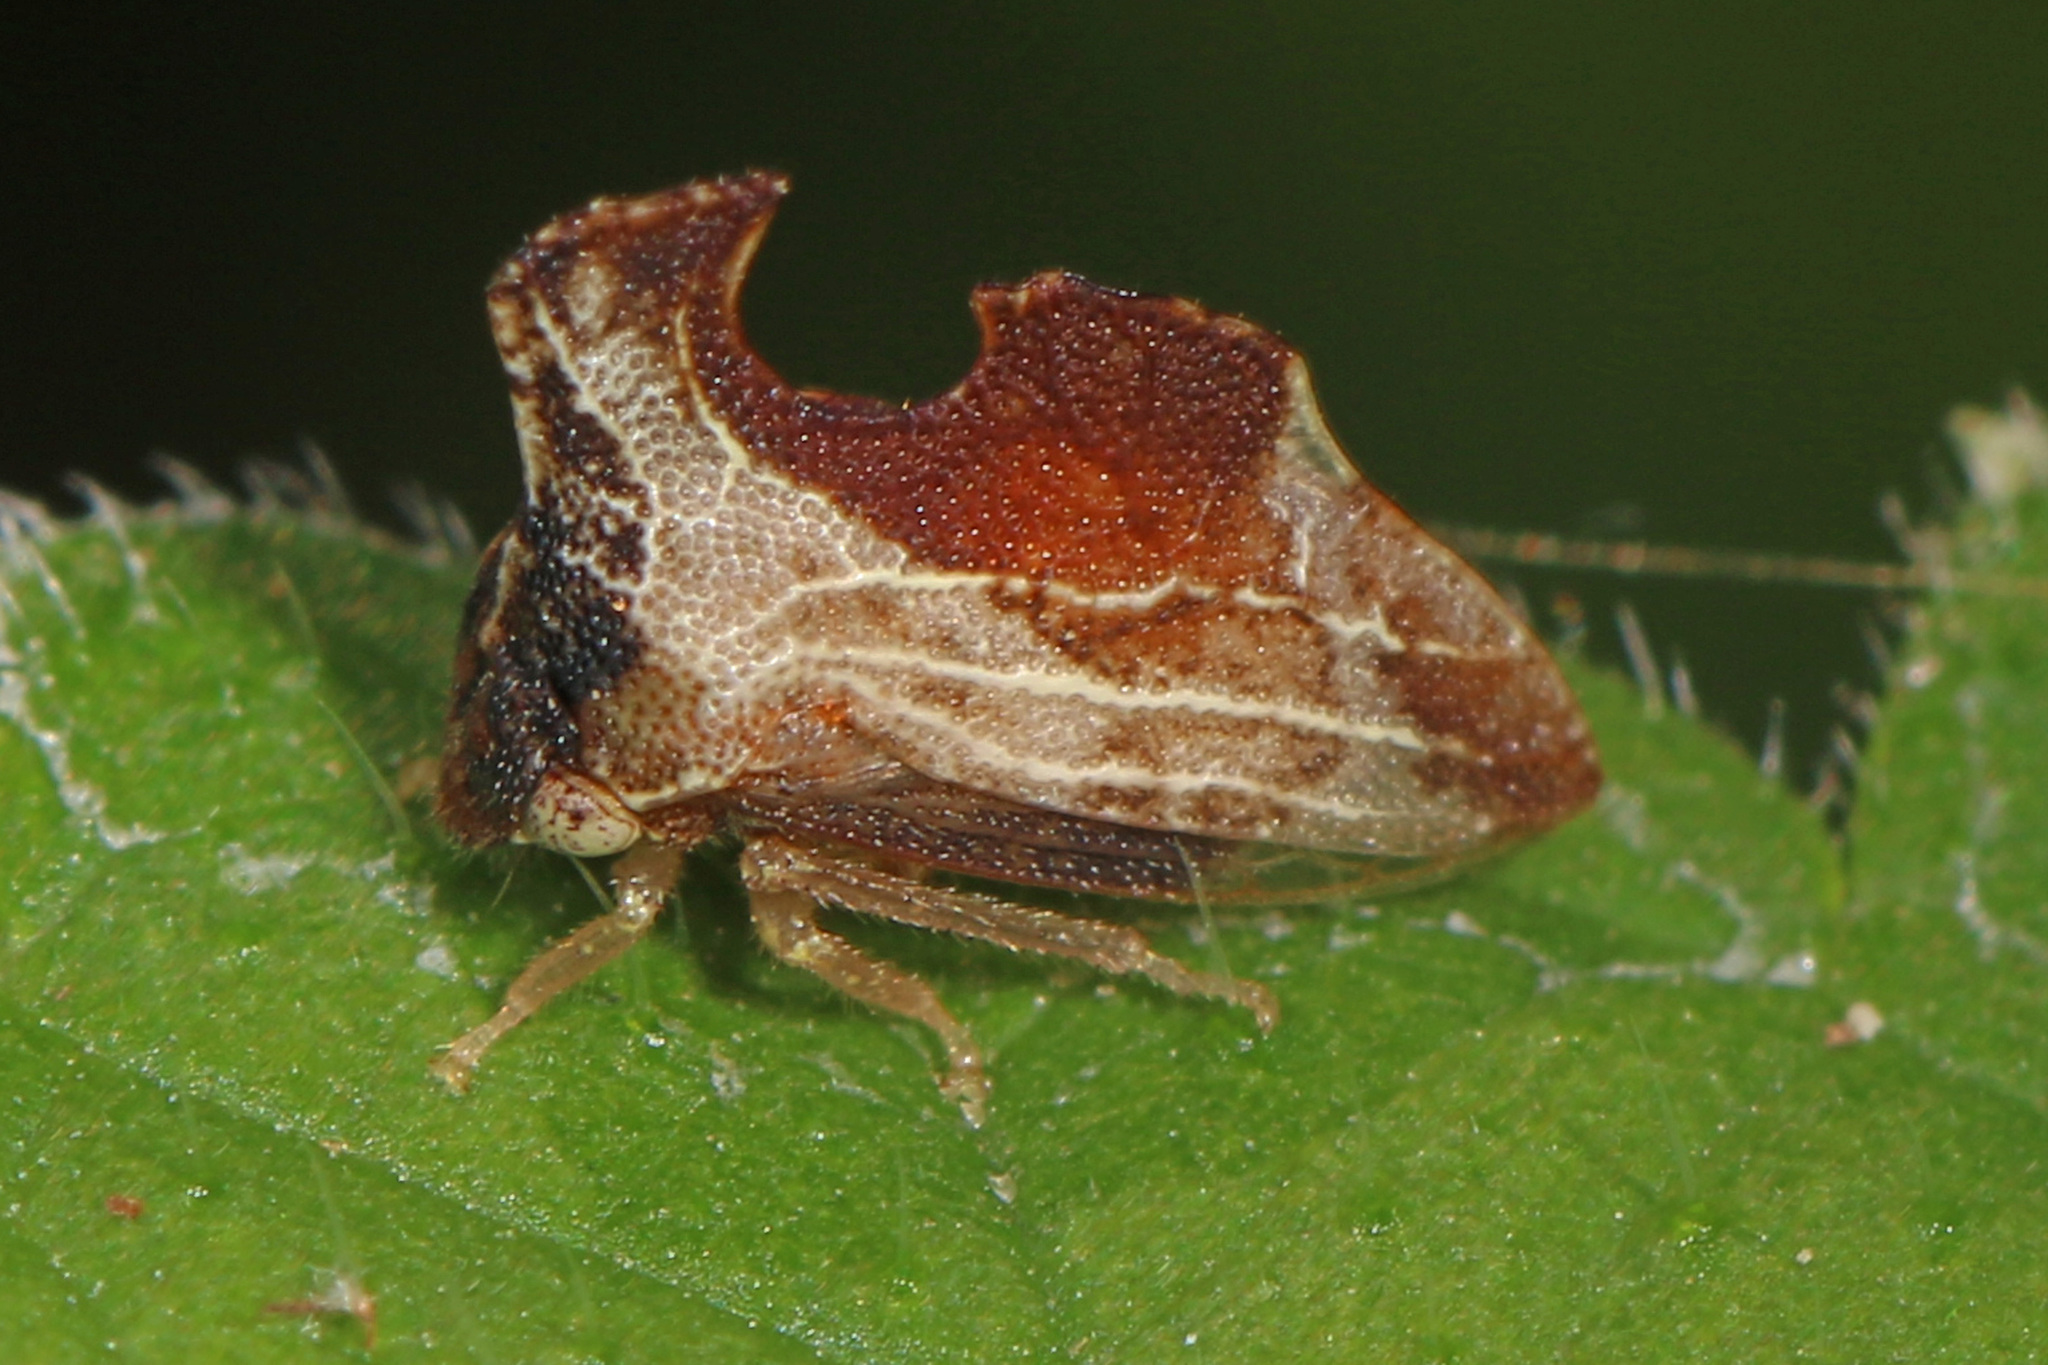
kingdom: Animalia
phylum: Arthropoda
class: Insecta
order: Hemiptera
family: Membracidae
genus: Entylia
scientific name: Entylia carinata
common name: Keeled treehopper
